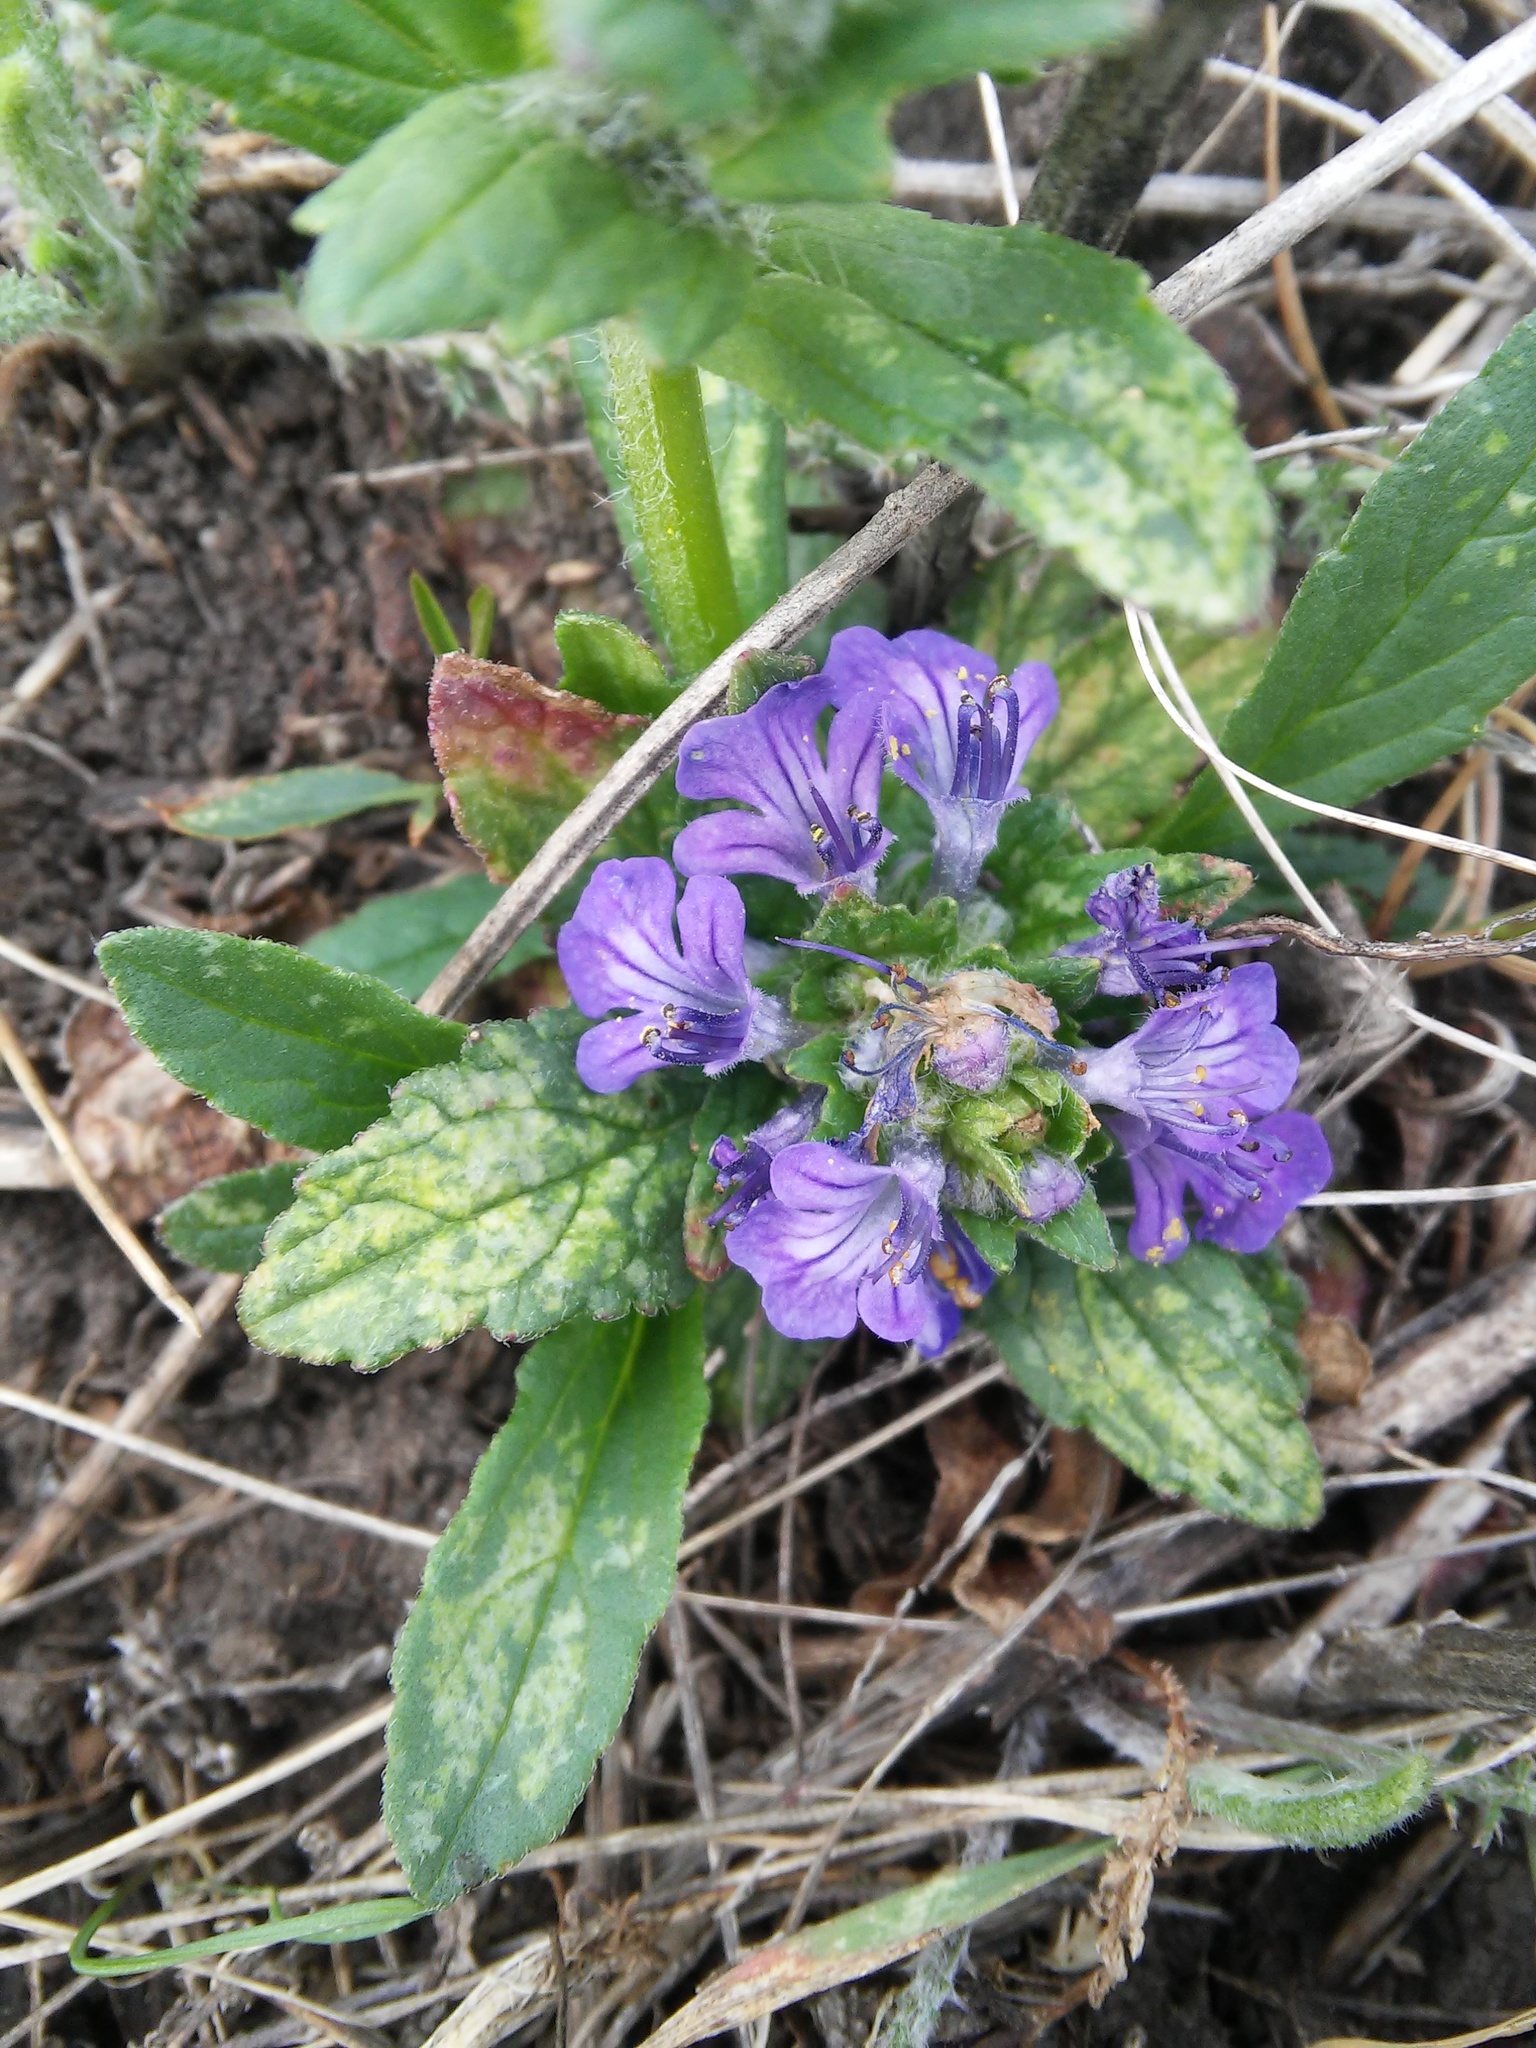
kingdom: Plantae
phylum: Tracheophyta
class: Magnoliopsida
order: Lamiales
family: Lamiaceae
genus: Ajuga
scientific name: Ajuga genevensis
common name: Blue bugle
